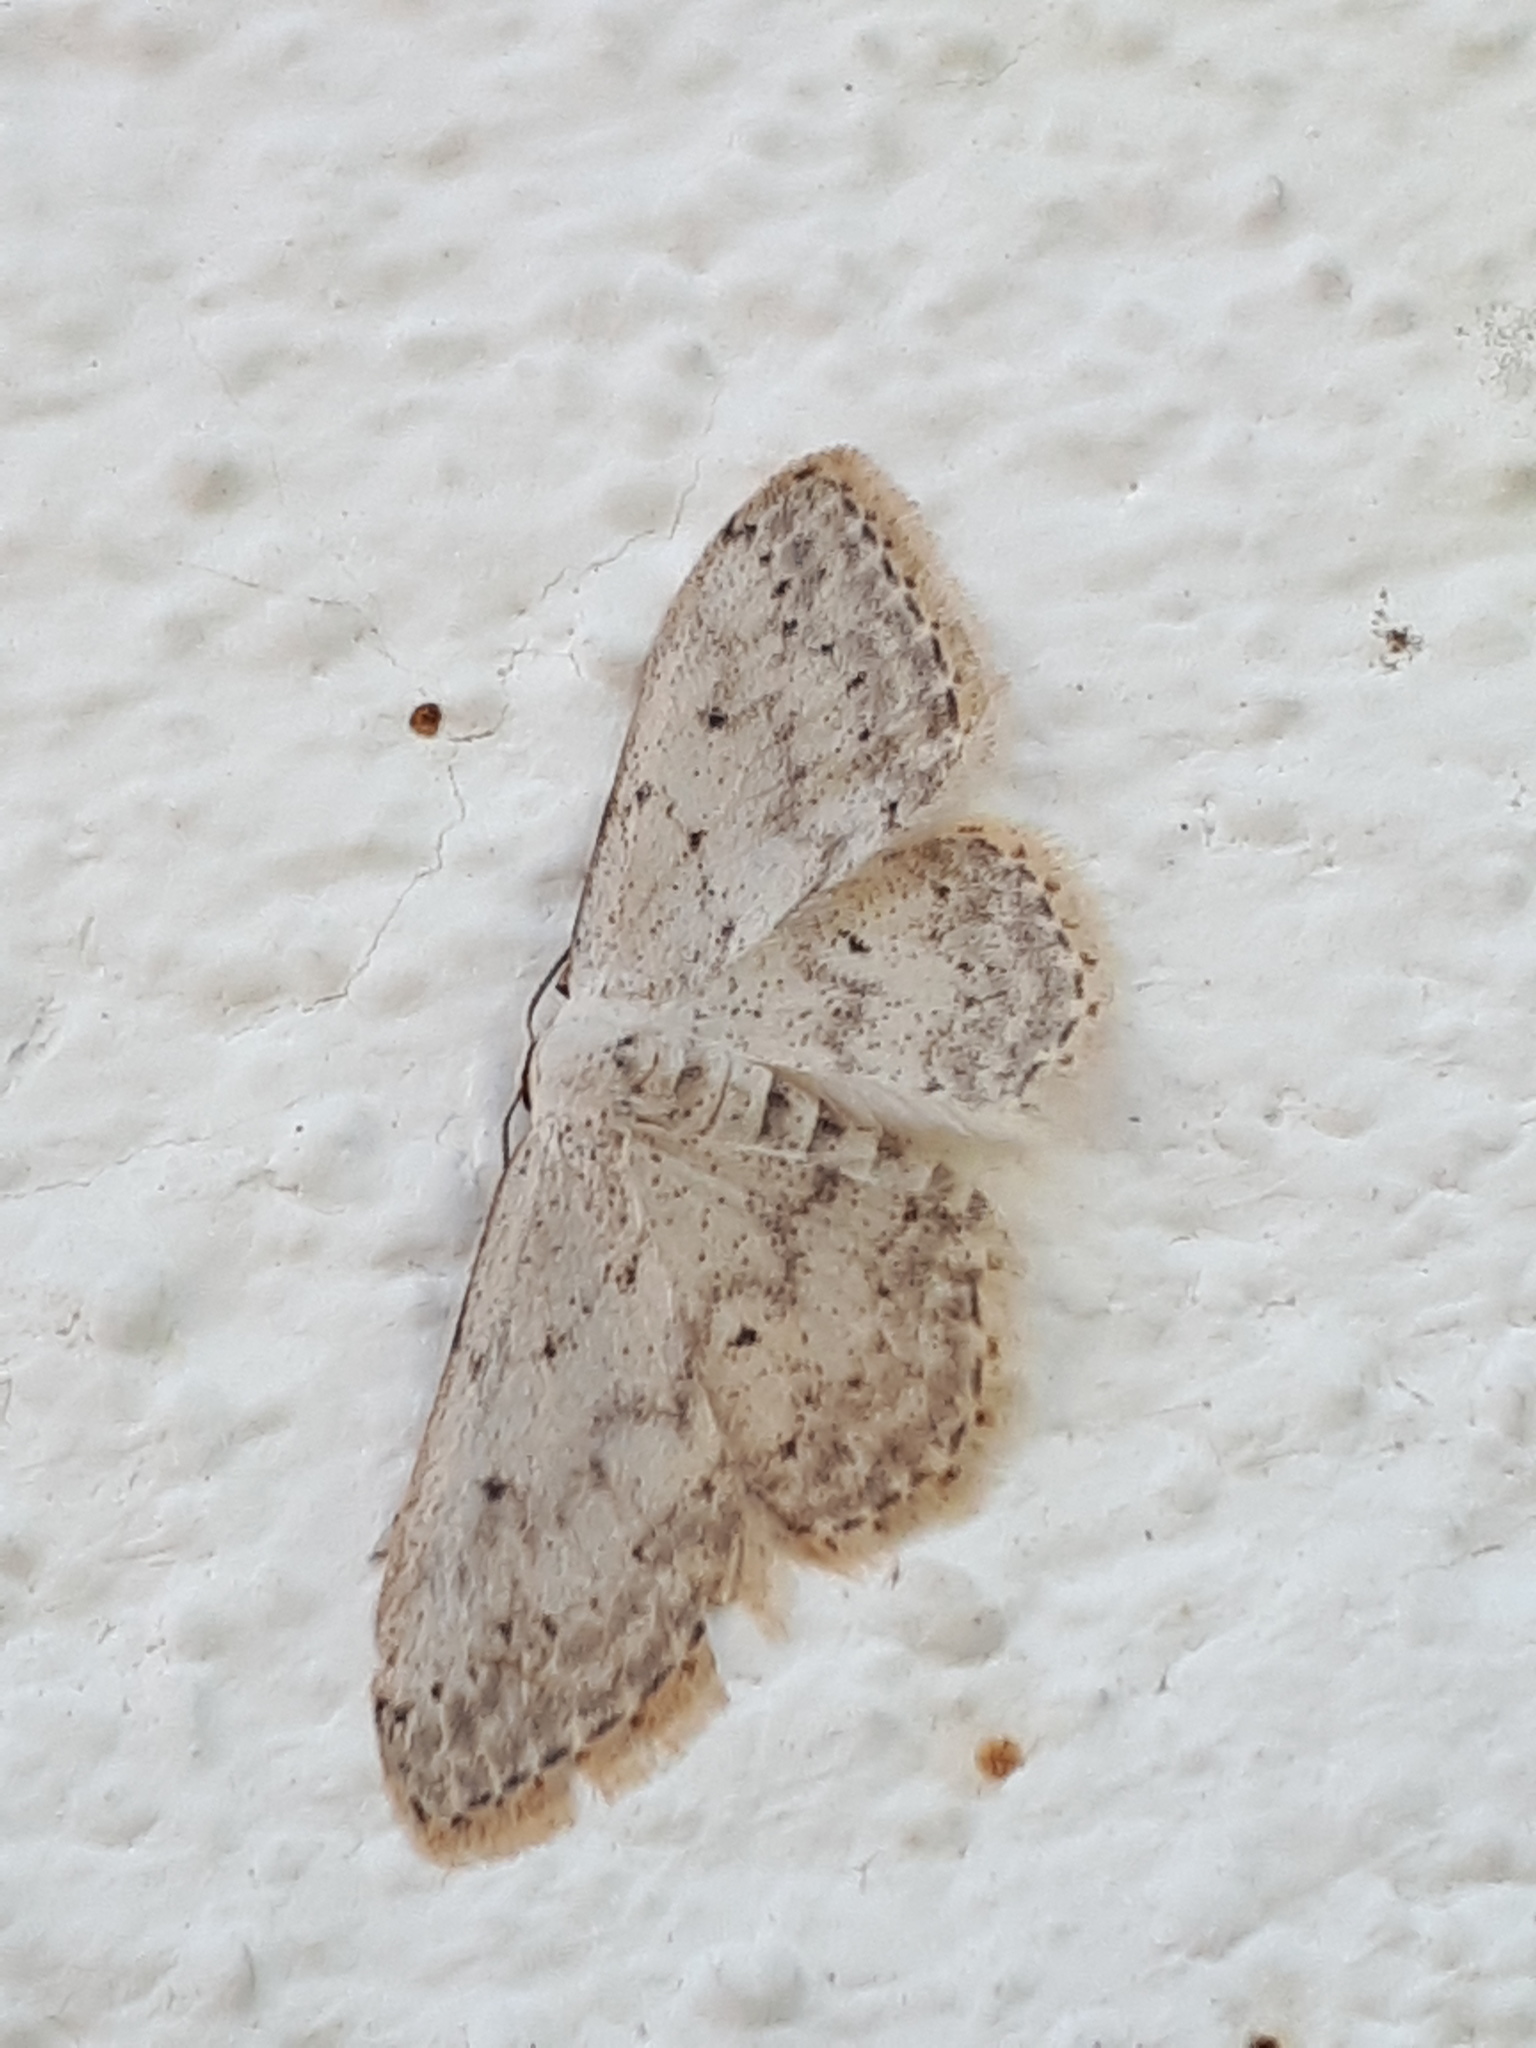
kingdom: Animalia
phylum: Arthropoda
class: Insecta
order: Lepidoptera
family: Geometridae
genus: Idaea
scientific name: Idaea seriata
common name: Small dusty wave
